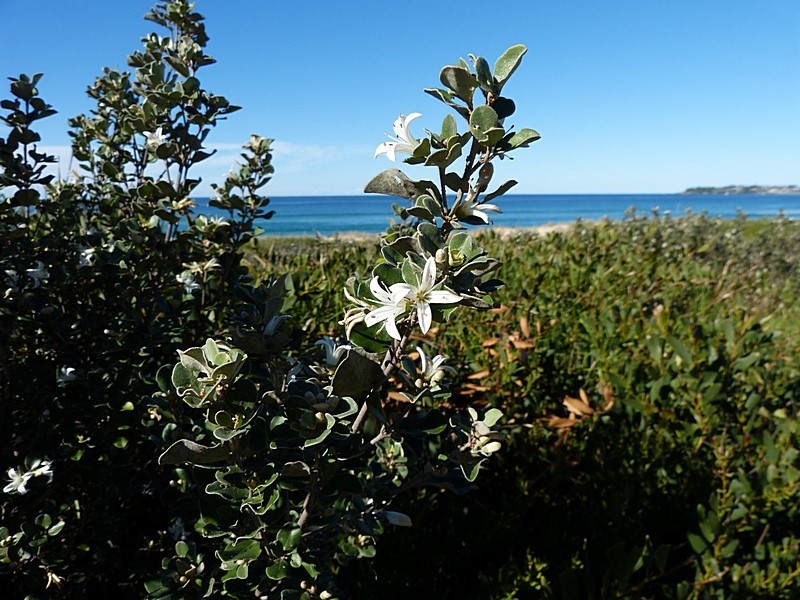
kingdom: Plantae
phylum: Tracheophyta
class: Magnoliopsida
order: Sapindales
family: Rutaceae
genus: Correa
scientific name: Correa alba
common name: White correa
